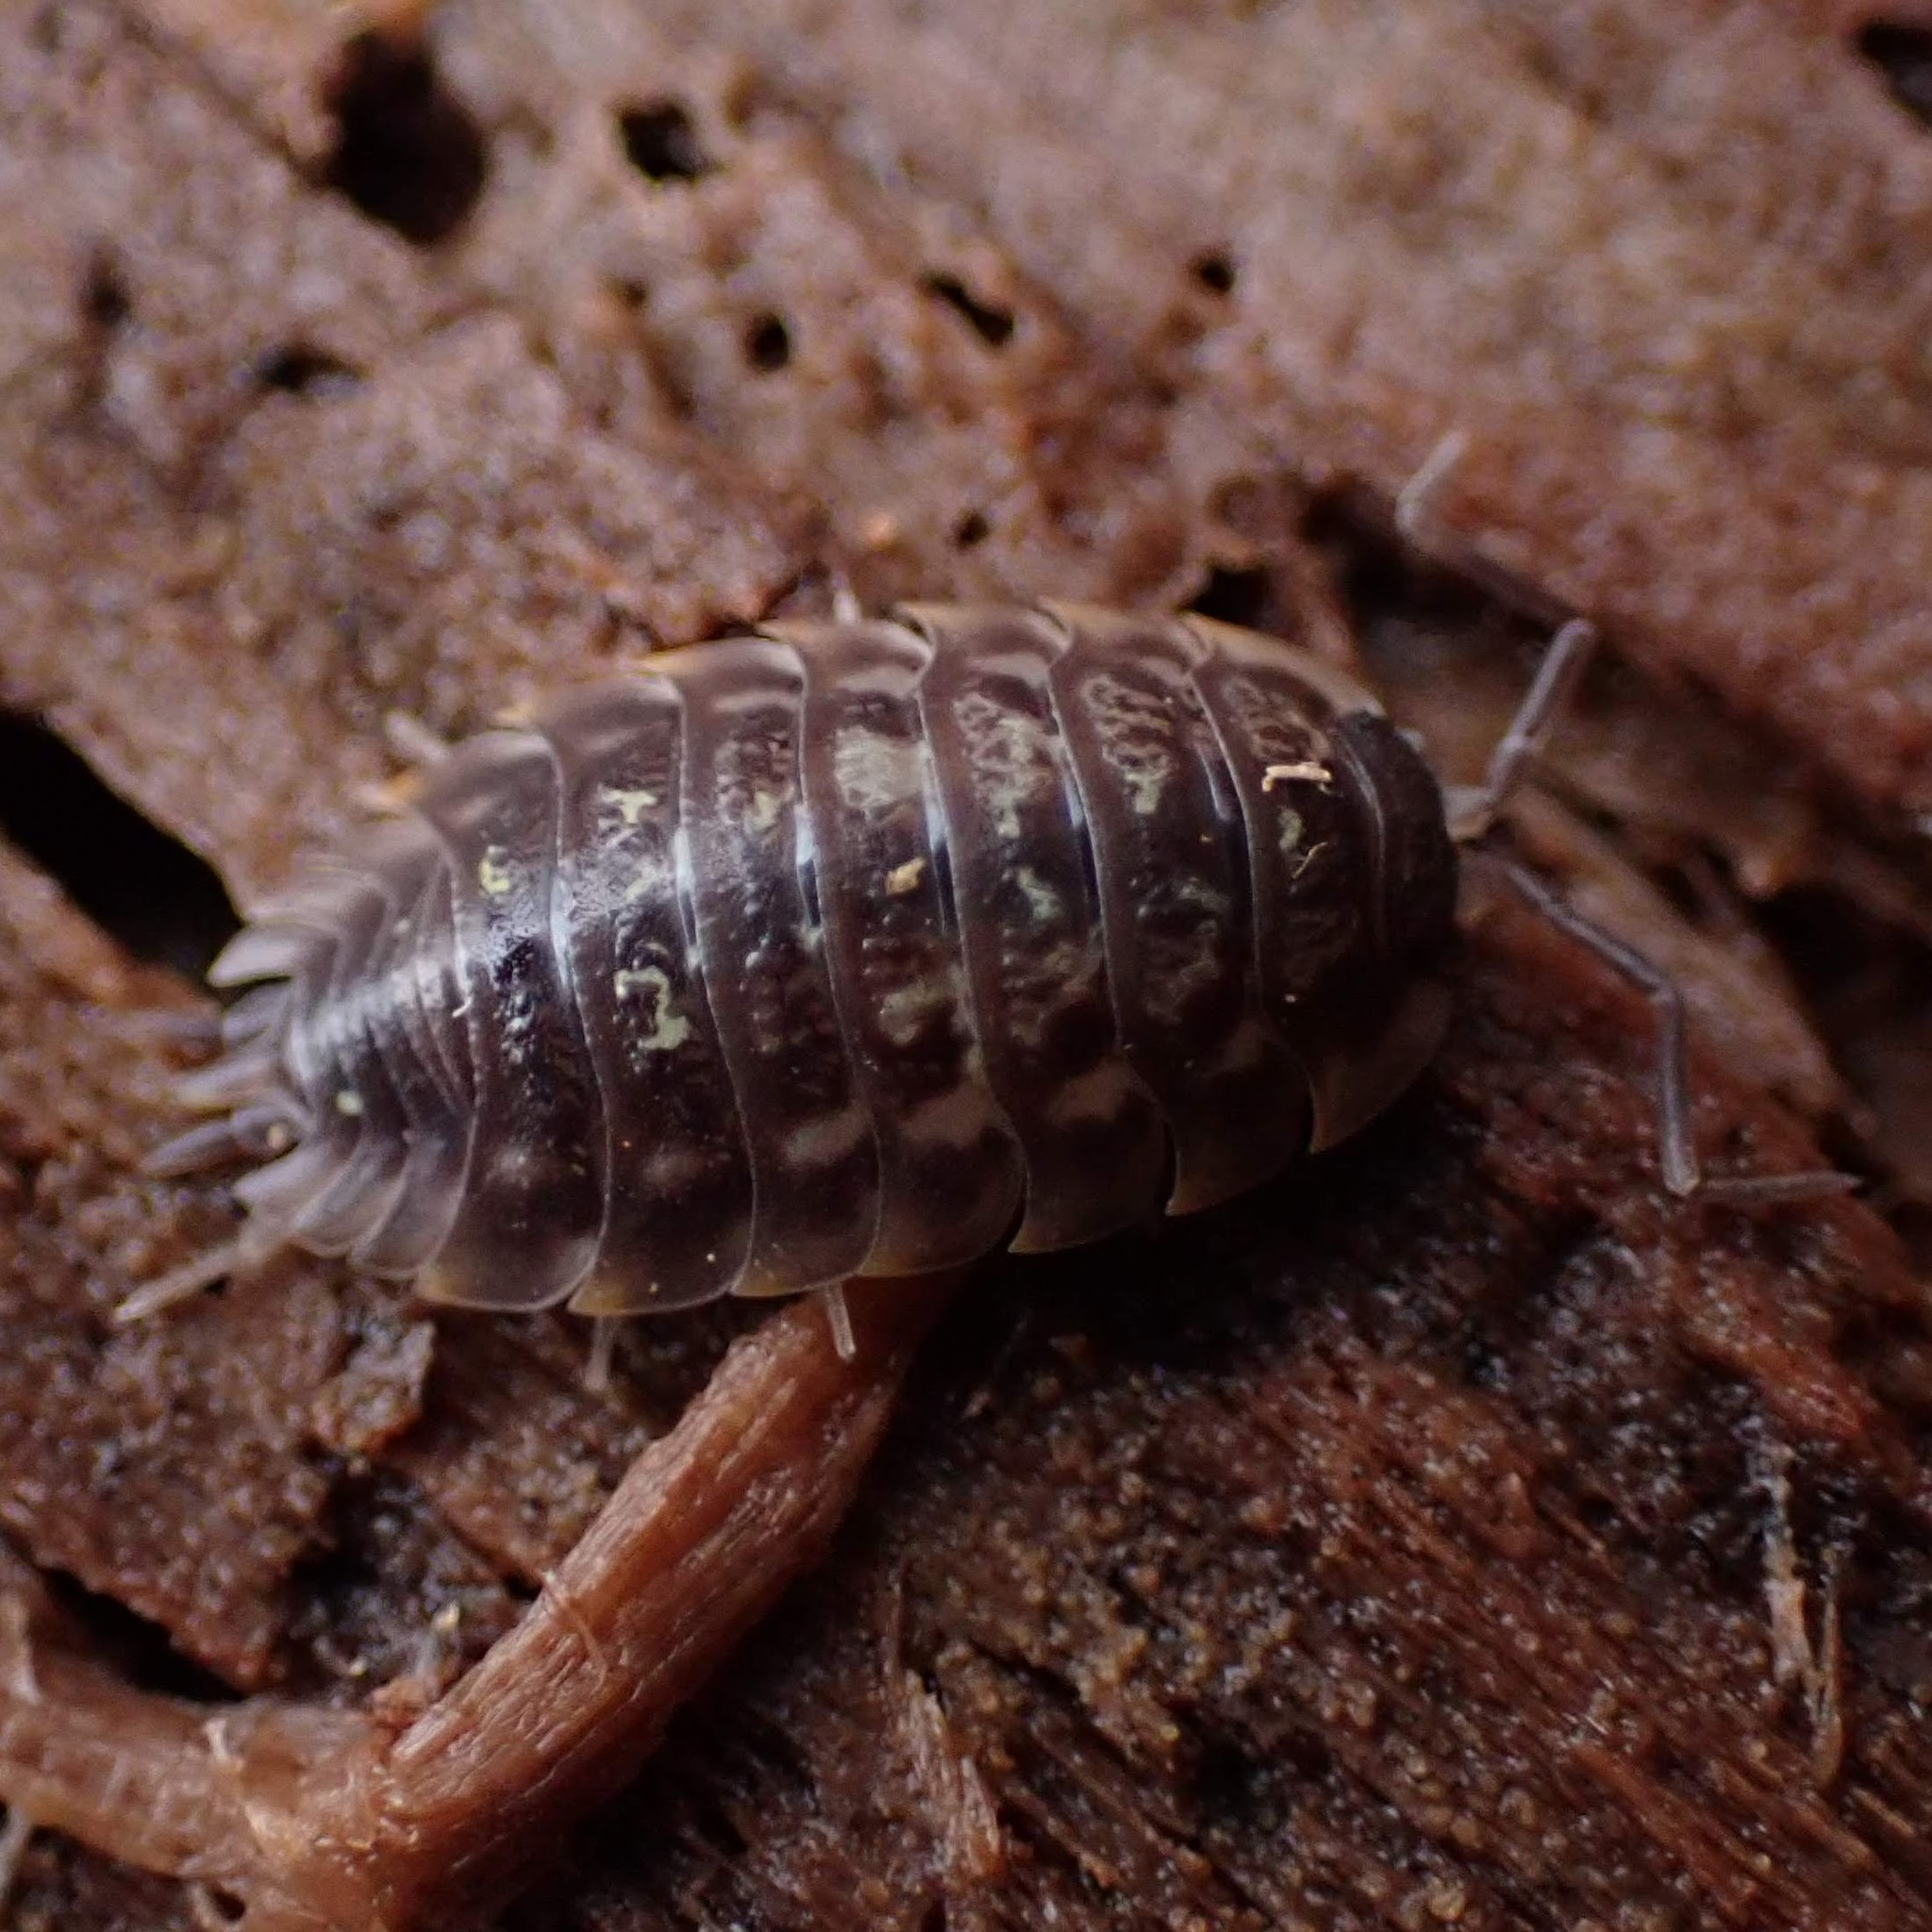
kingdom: Animalia
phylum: Arthropoda
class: Malacostraca
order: Isopoda
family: Oniscidae
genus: Oniscus
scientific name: Oniscus asellus
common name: Common shiny woodlouse
